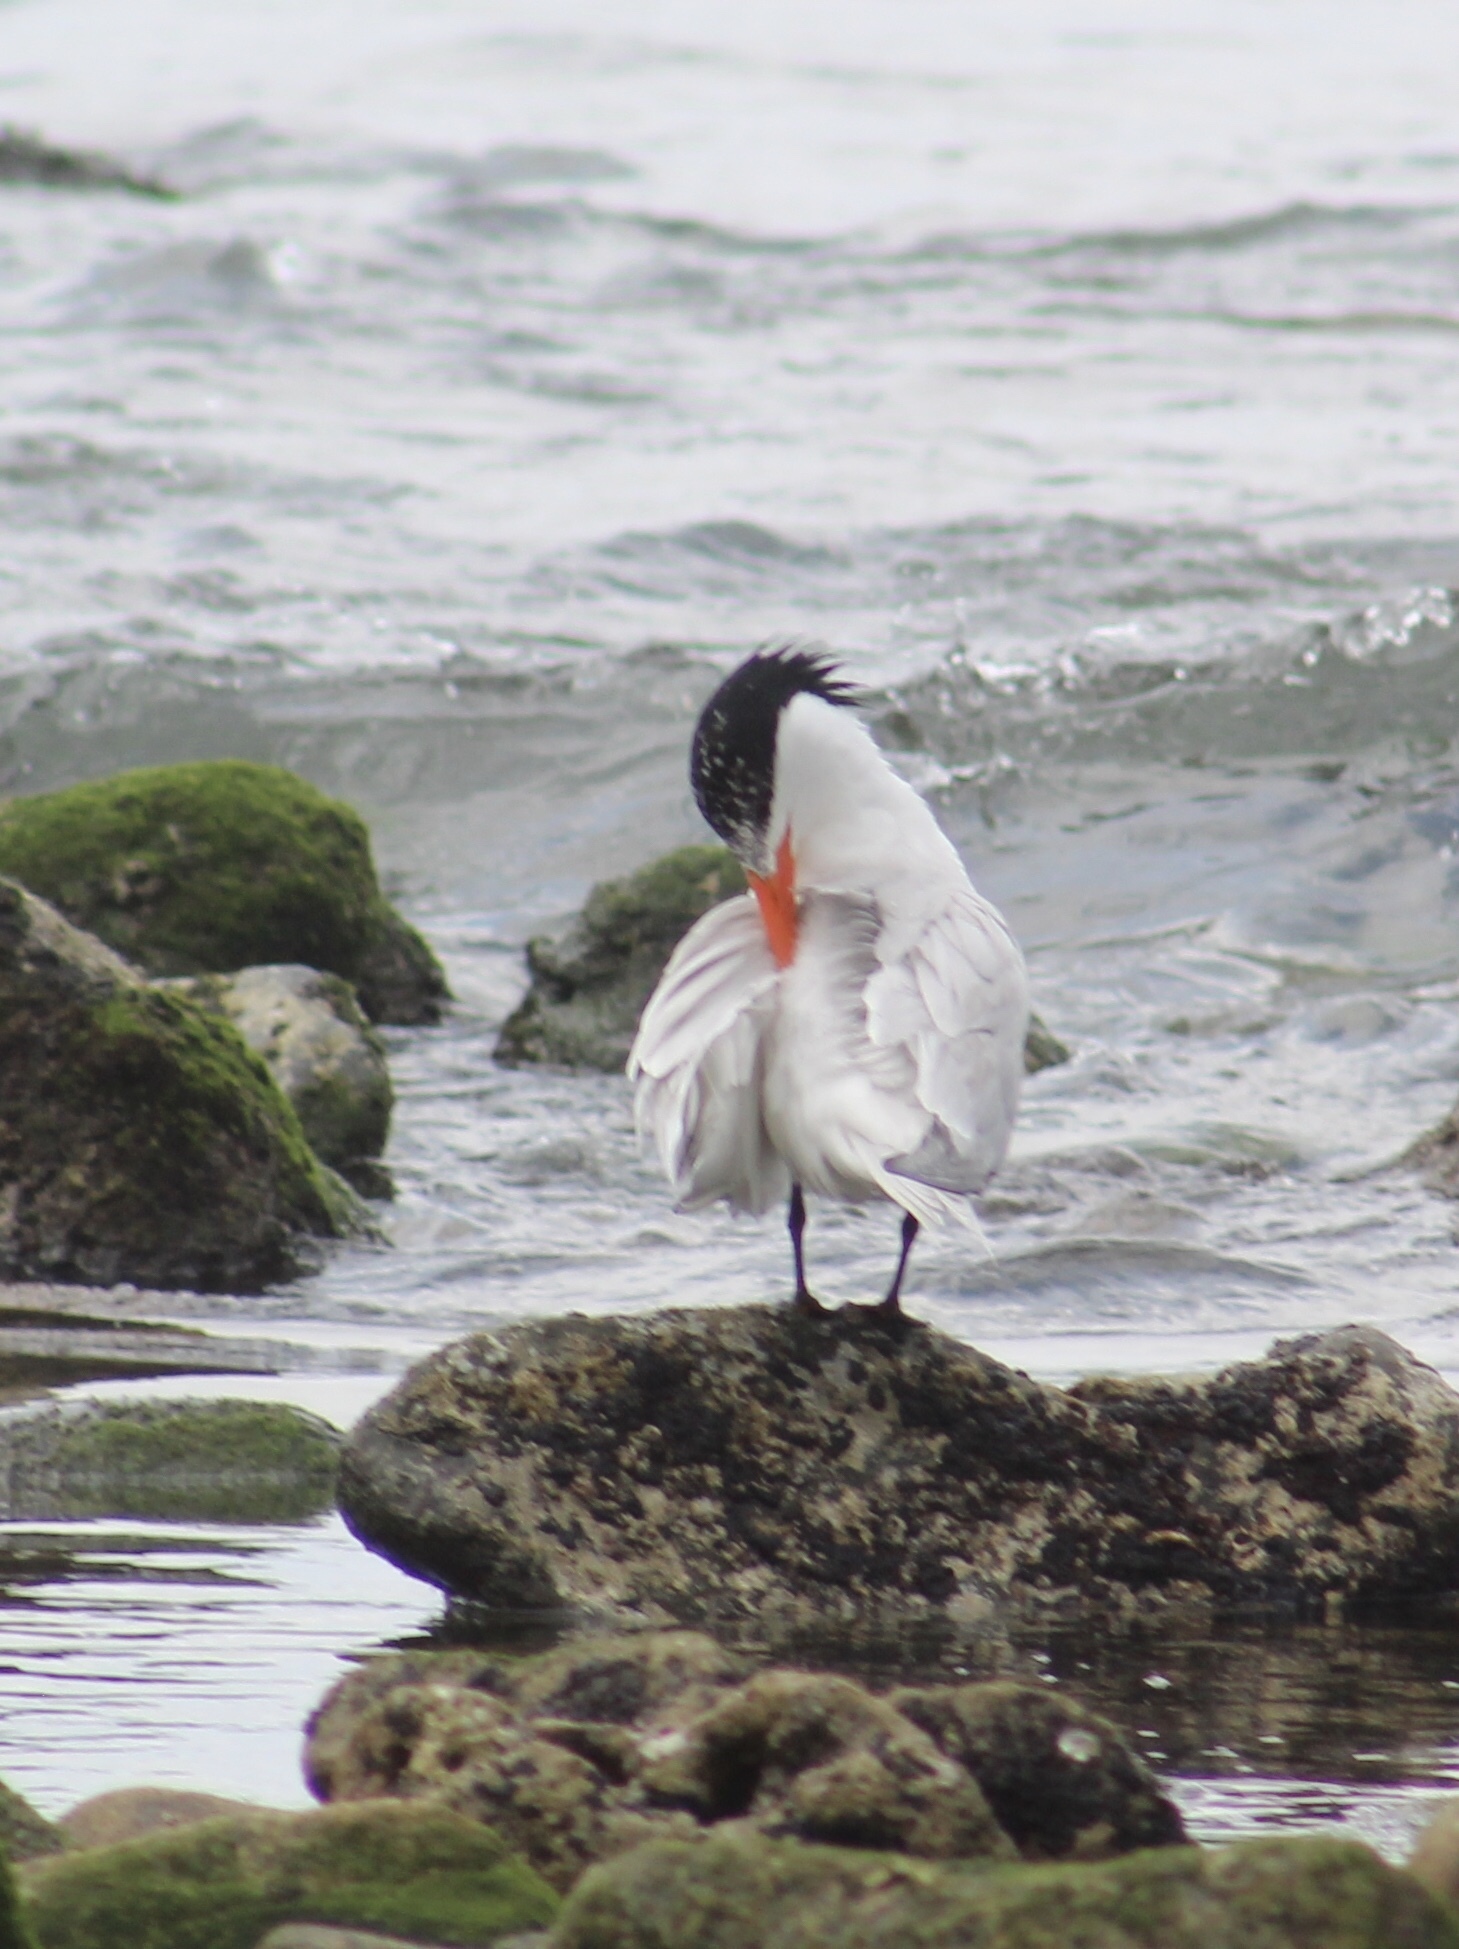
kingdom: Animalia
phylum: Chordata
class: Aves
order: Charadriiformes
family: Laridae
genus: Thalasseus
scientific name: Thalasseus maximus
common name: Royal tern
